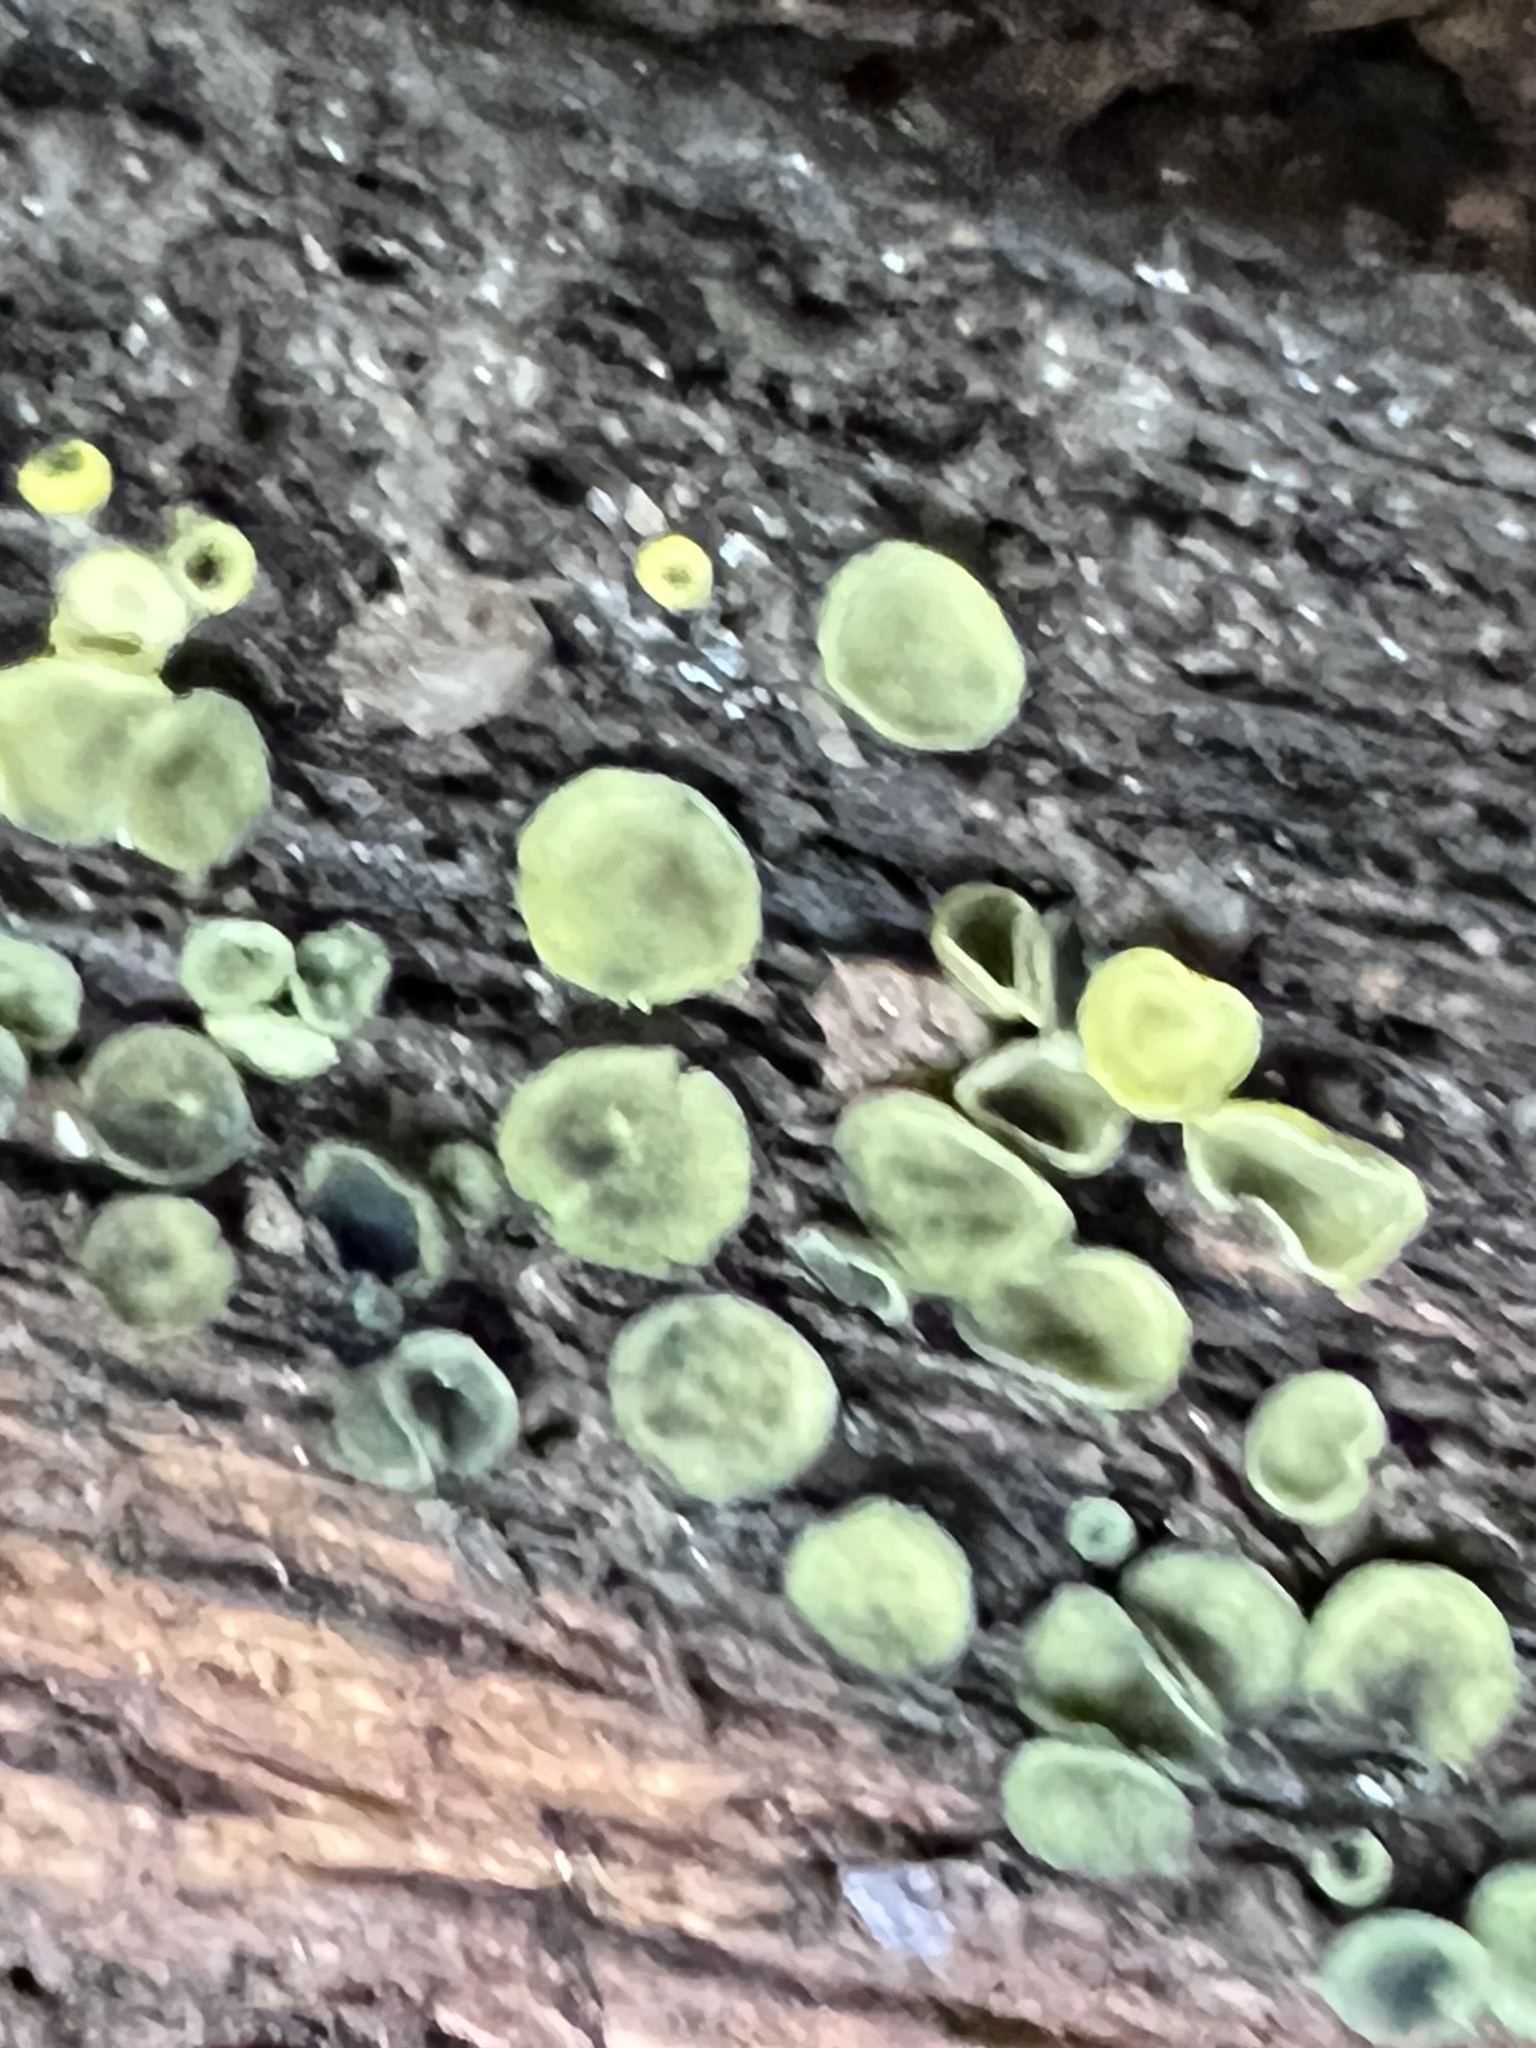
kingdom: Fungi
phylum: Ascomycota
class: Leotiomycetes
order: Helotiales
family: Chlorospleniaceae
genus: Chlorosplenium
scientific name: Chlorosplenium chlora
